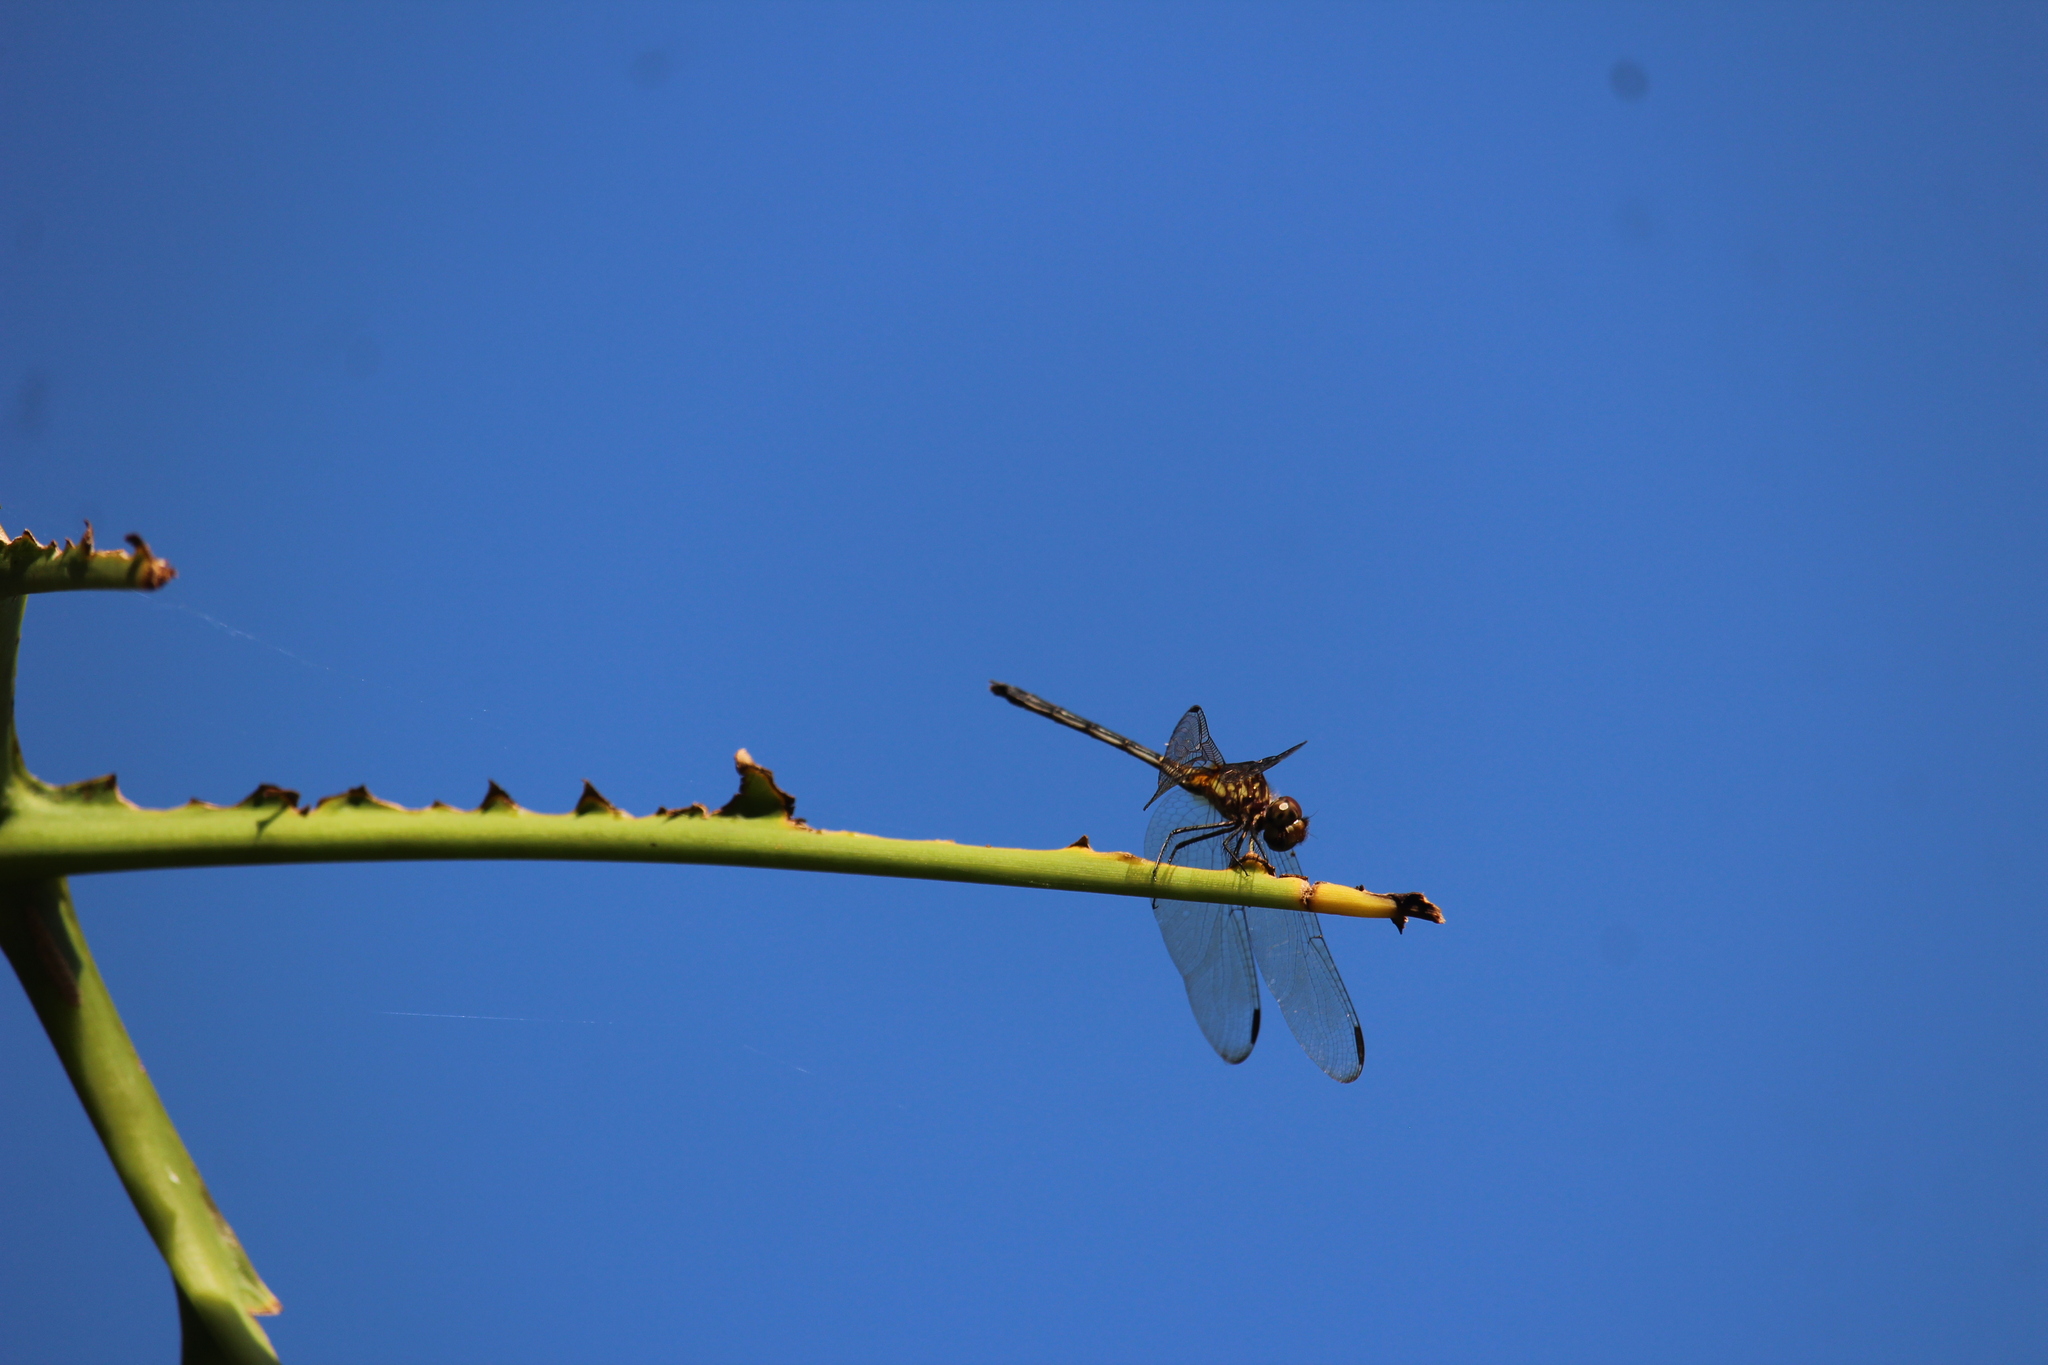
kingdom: Animalia
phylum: Arthropoda
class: Insecta
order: Odonata
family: Libellulidae
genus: Dythemis
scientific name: Dythemis sterilis
